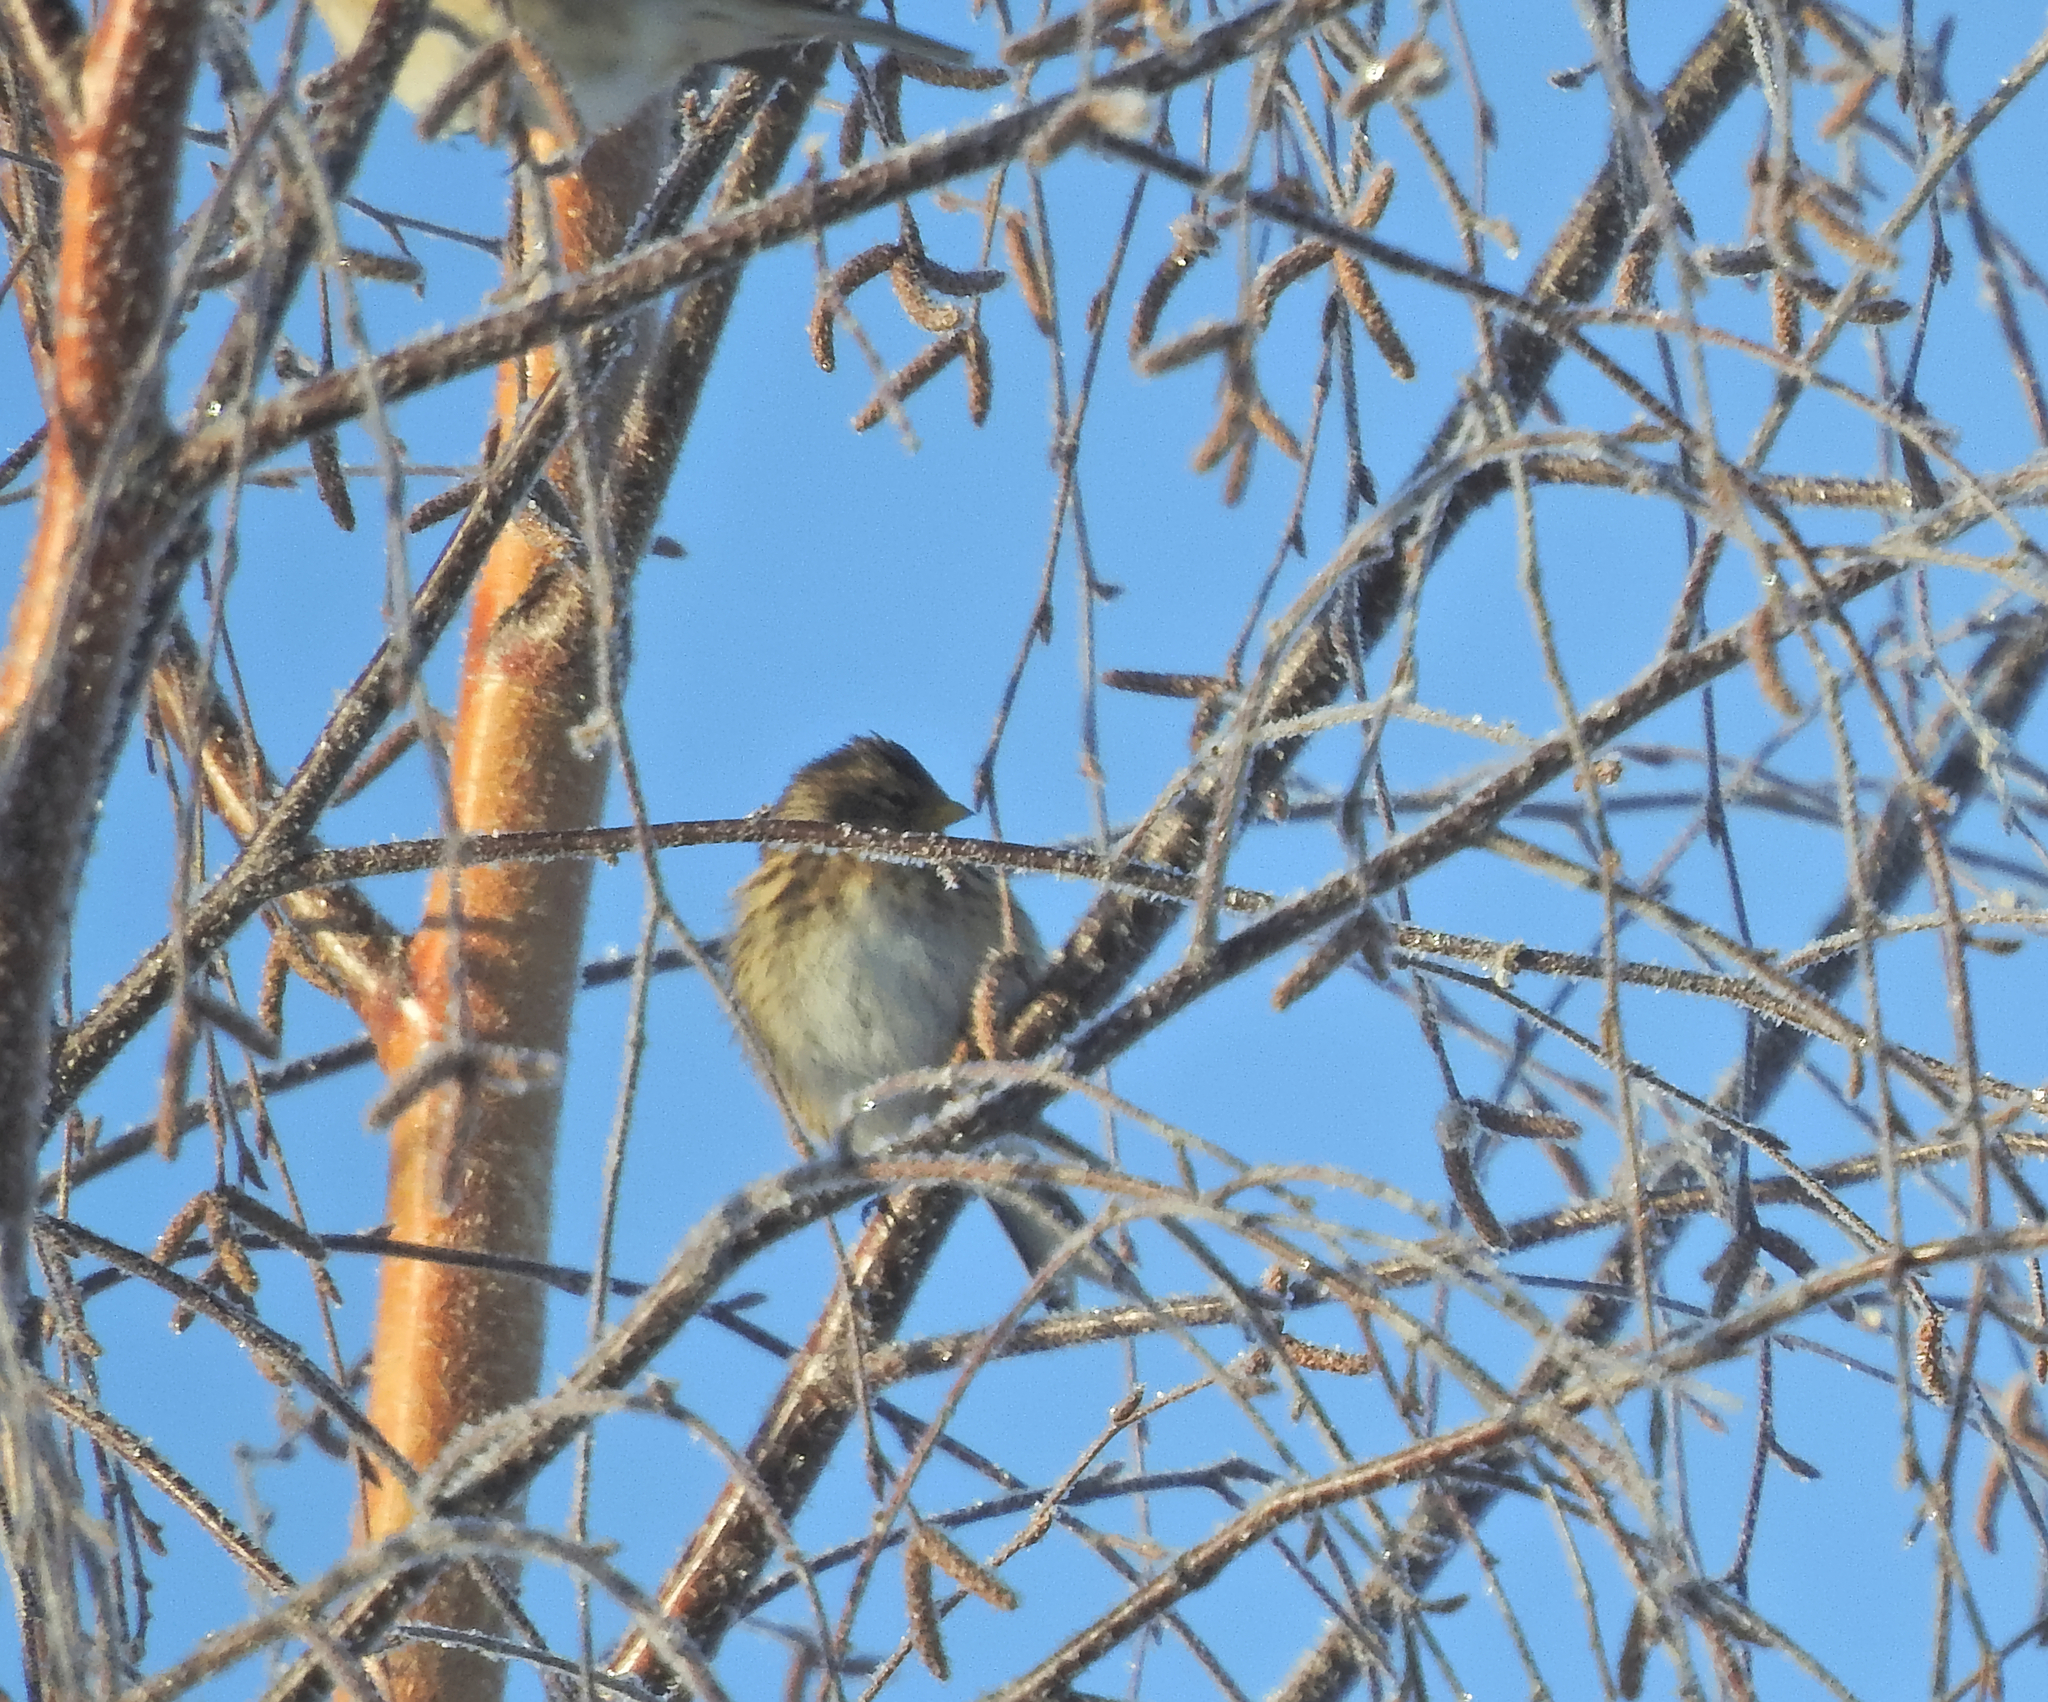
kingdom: Animalia
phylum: Chordata
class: Aves
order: Passeriformes
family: Fringillidae
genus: Linaria
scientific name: Linaria flavirostris
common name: Twite
